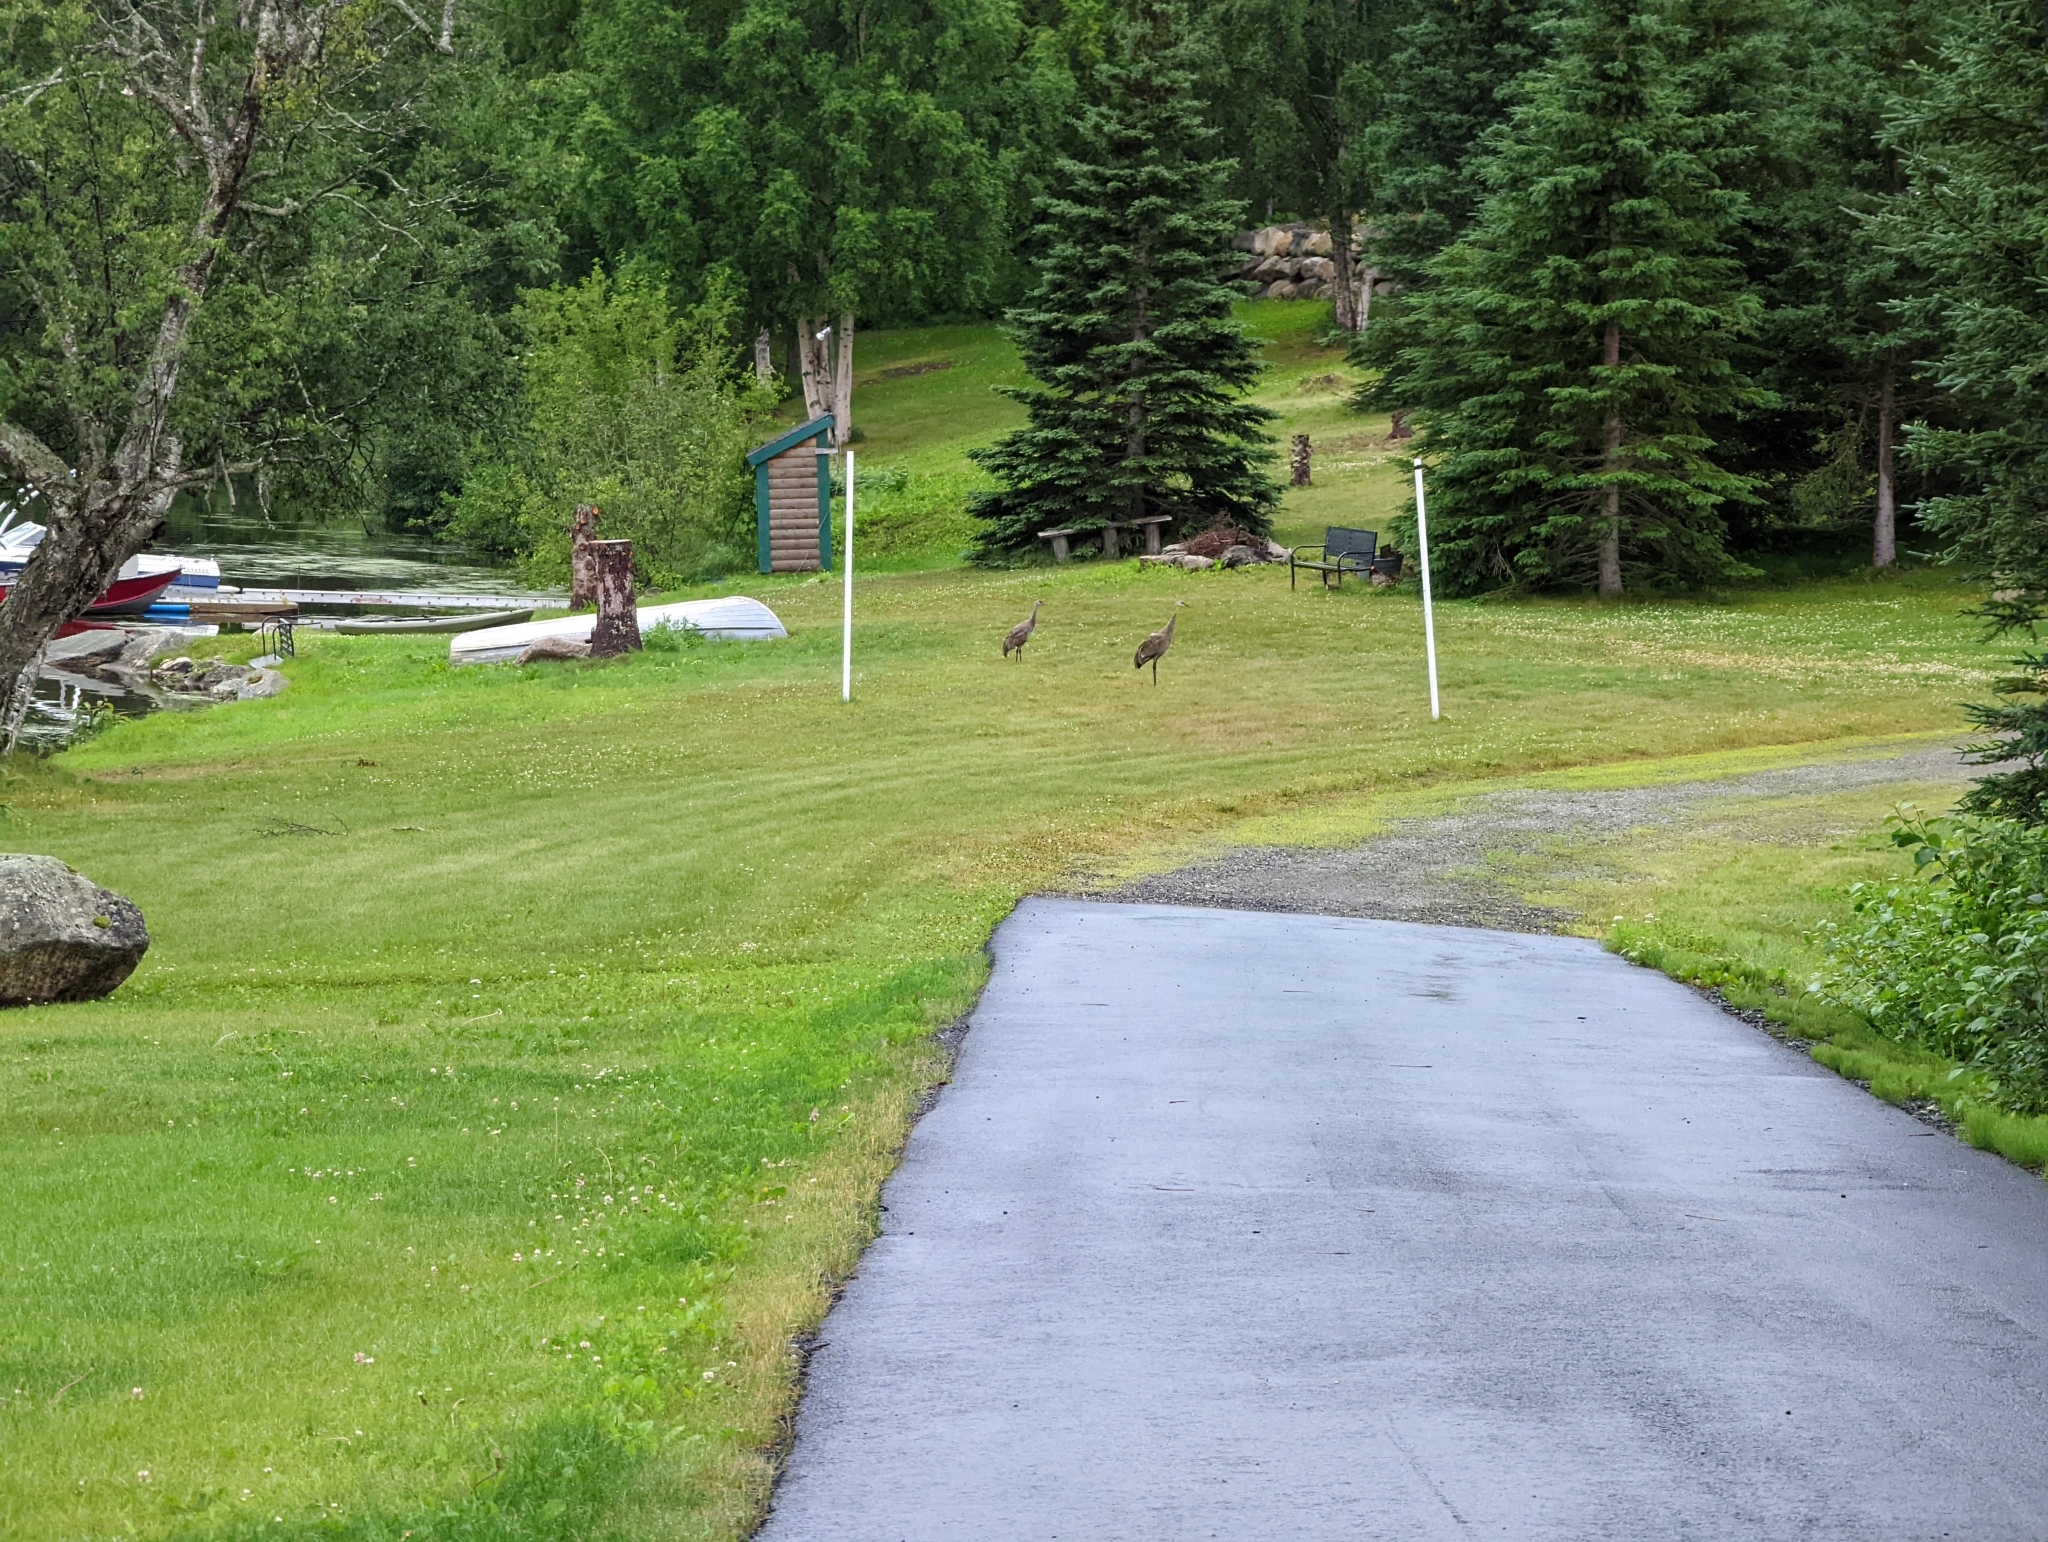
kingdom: Animalia
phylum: Chordata
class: Aves
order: Gruiformes
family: Gruidae
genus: Grus
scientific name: Grus canadensis
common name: Sandhill crane
